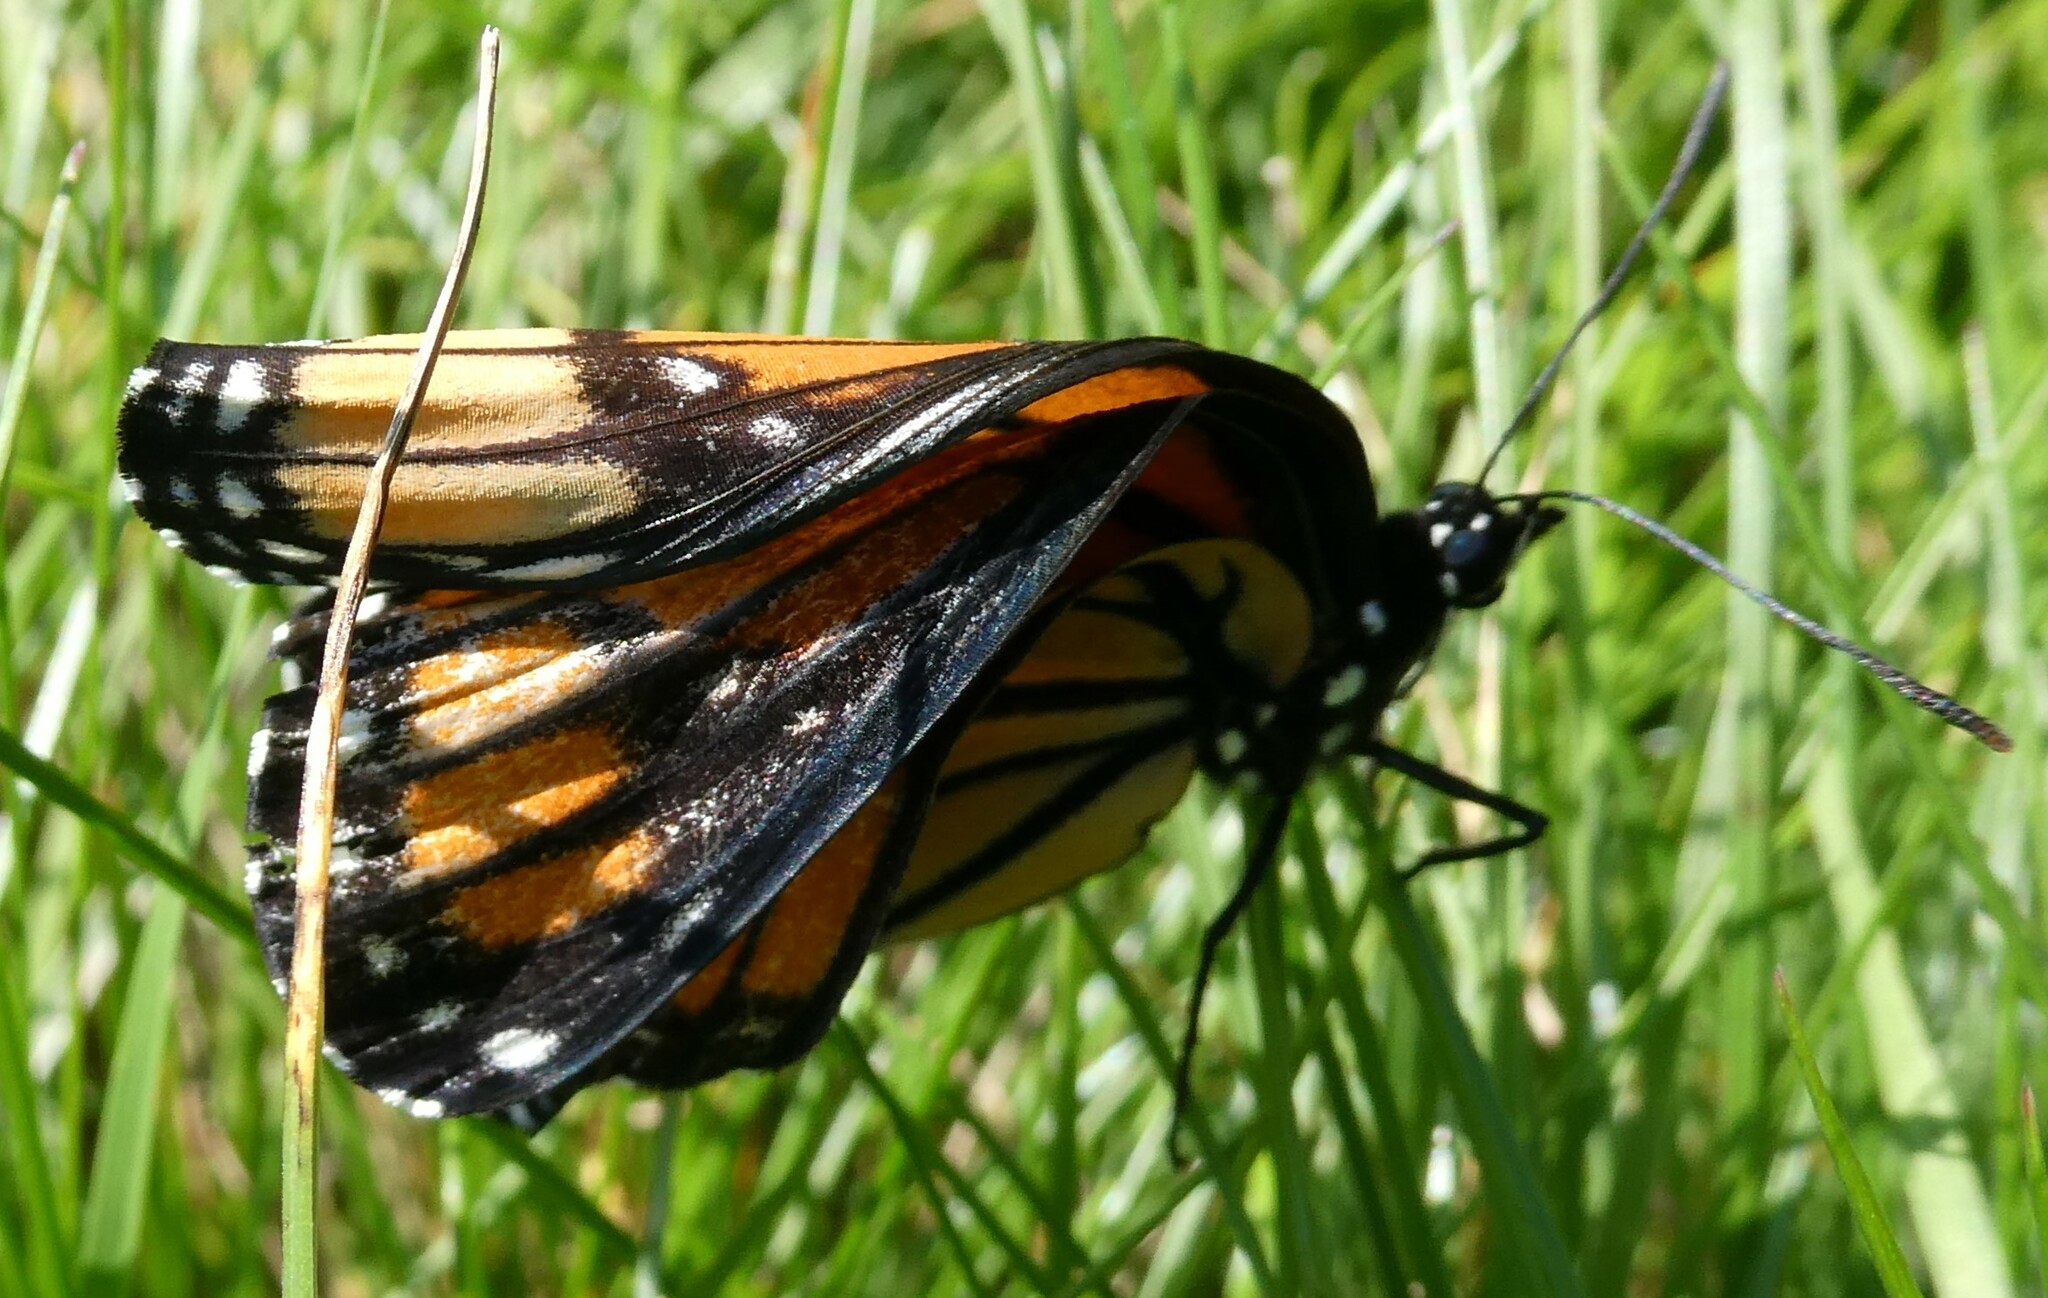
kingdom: Animalia
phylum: Arthropoda
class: Insecta
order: Lepidoptera
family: Nymphalidae
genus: Limenitis
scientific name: Limenitis archippus
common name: Viceroy
